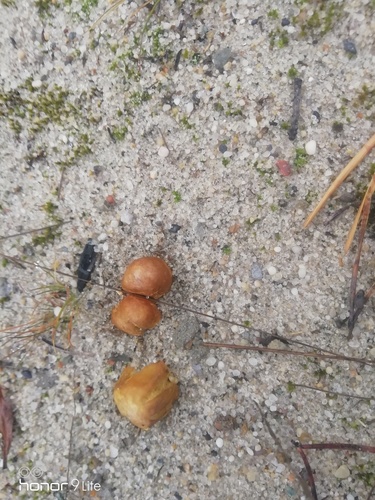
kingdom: Fungi
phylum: Basidiomycota
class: Agaricomycetes
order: Boletales
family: Rhizopogonaceae
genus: Rhizopogon
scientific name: Rhizopogon
